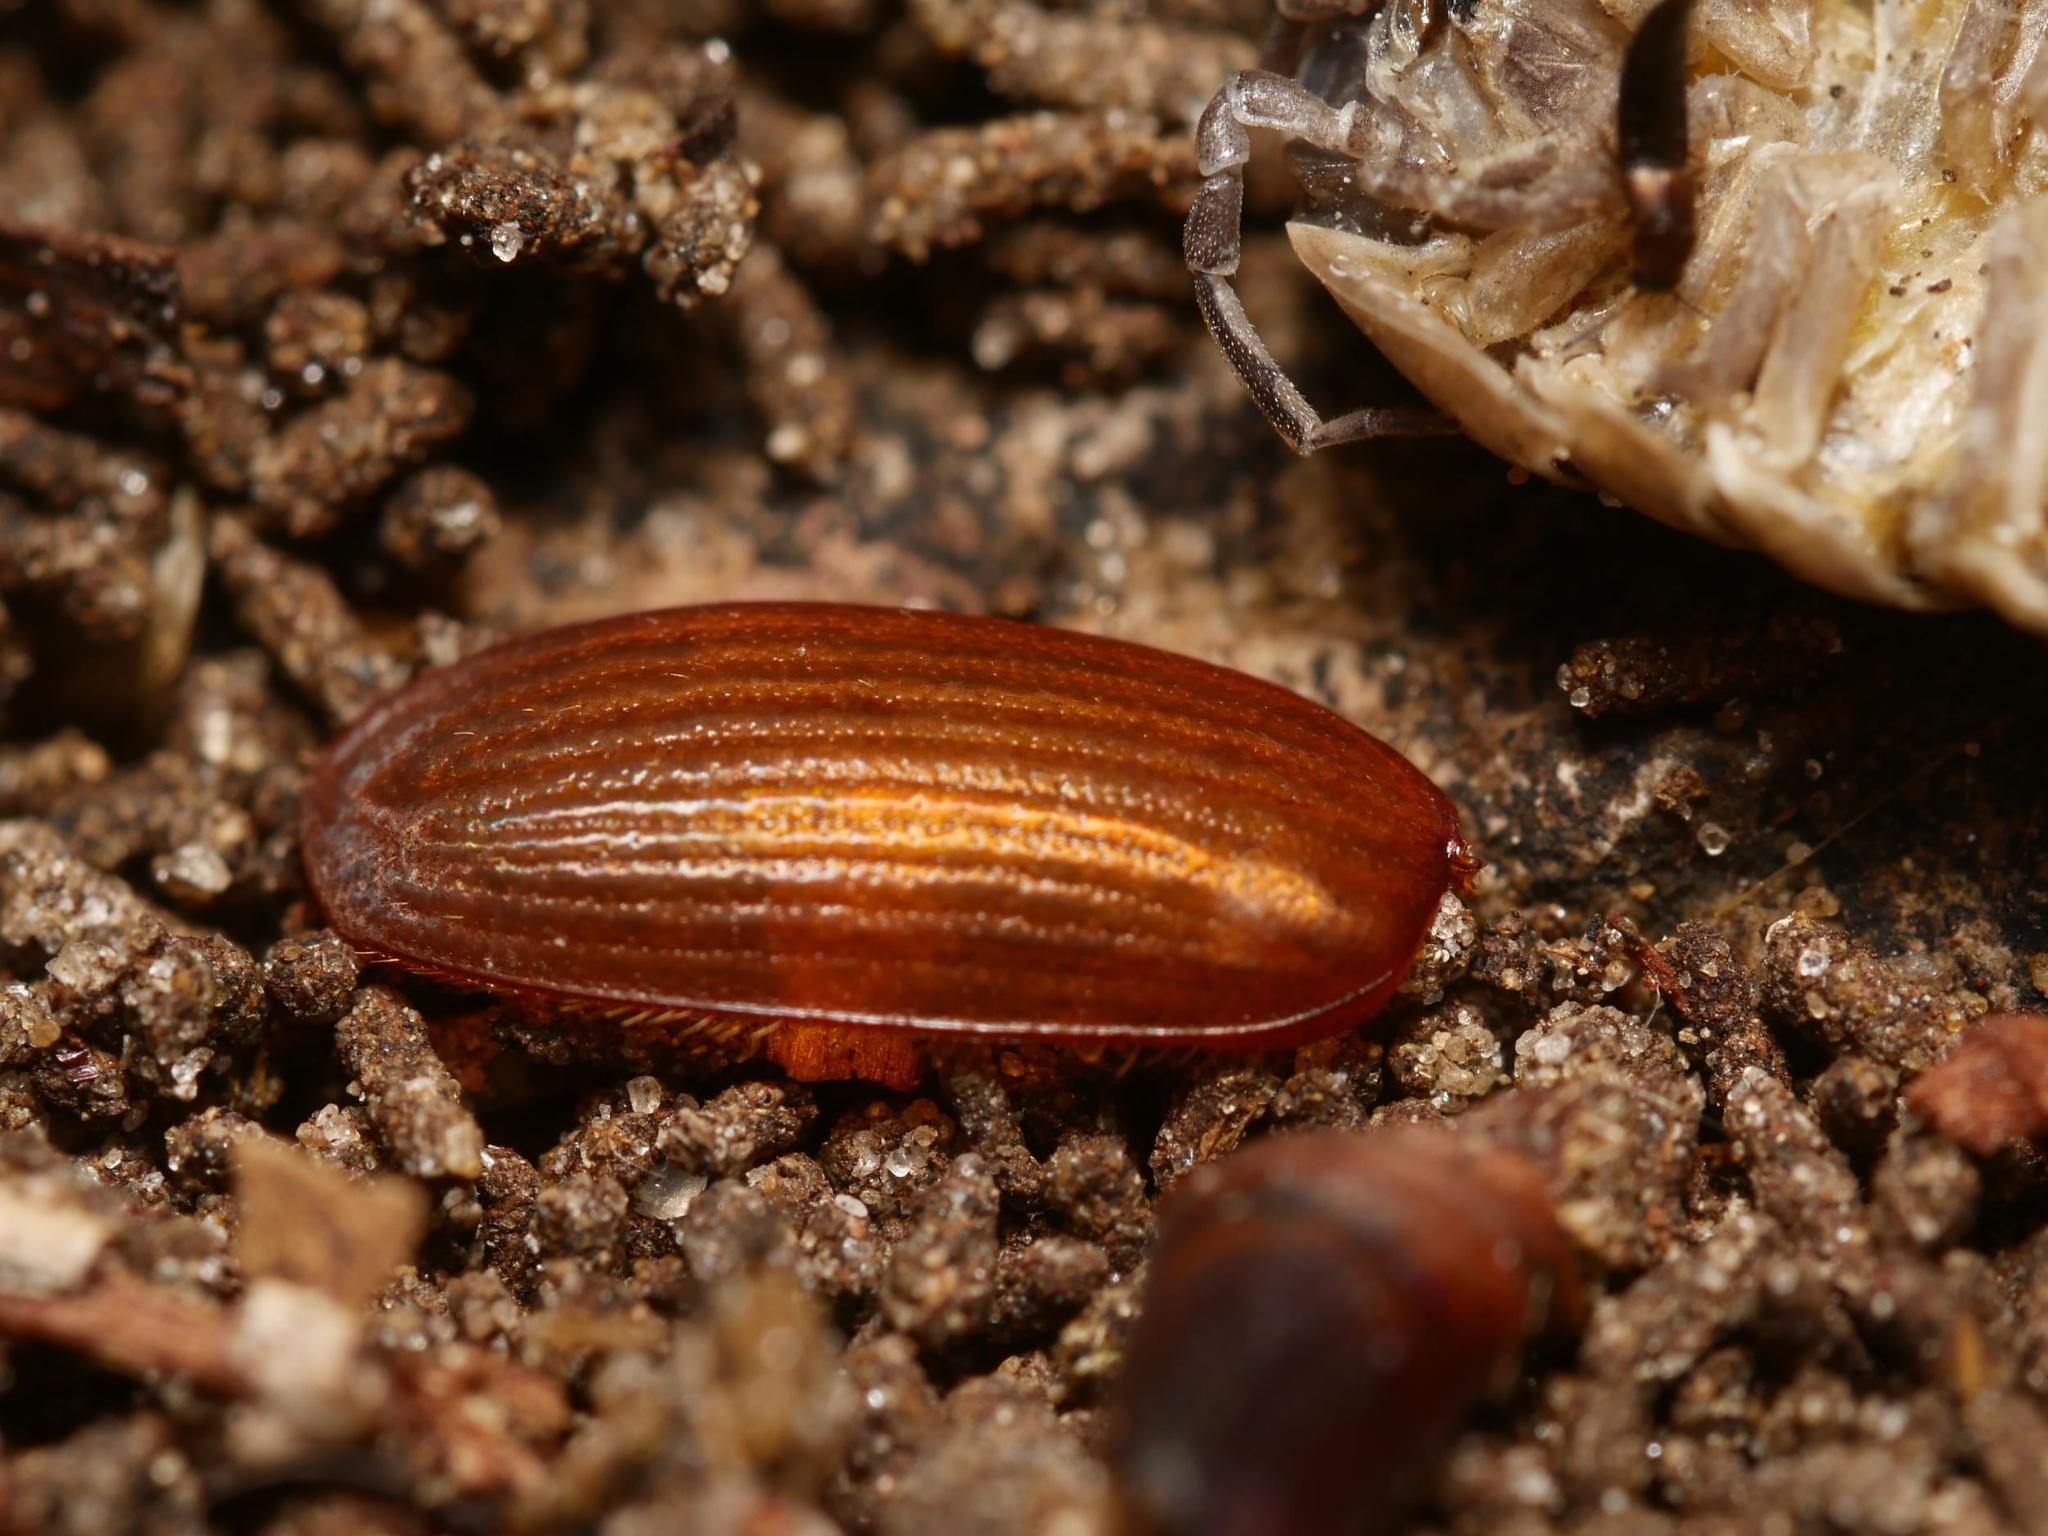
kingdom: Animalia
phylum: Arthropoda
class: Insecta
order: Coleoptera
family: Scarabaeidae
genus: Serica
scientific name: Serica brunnea
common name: Brown chafer
